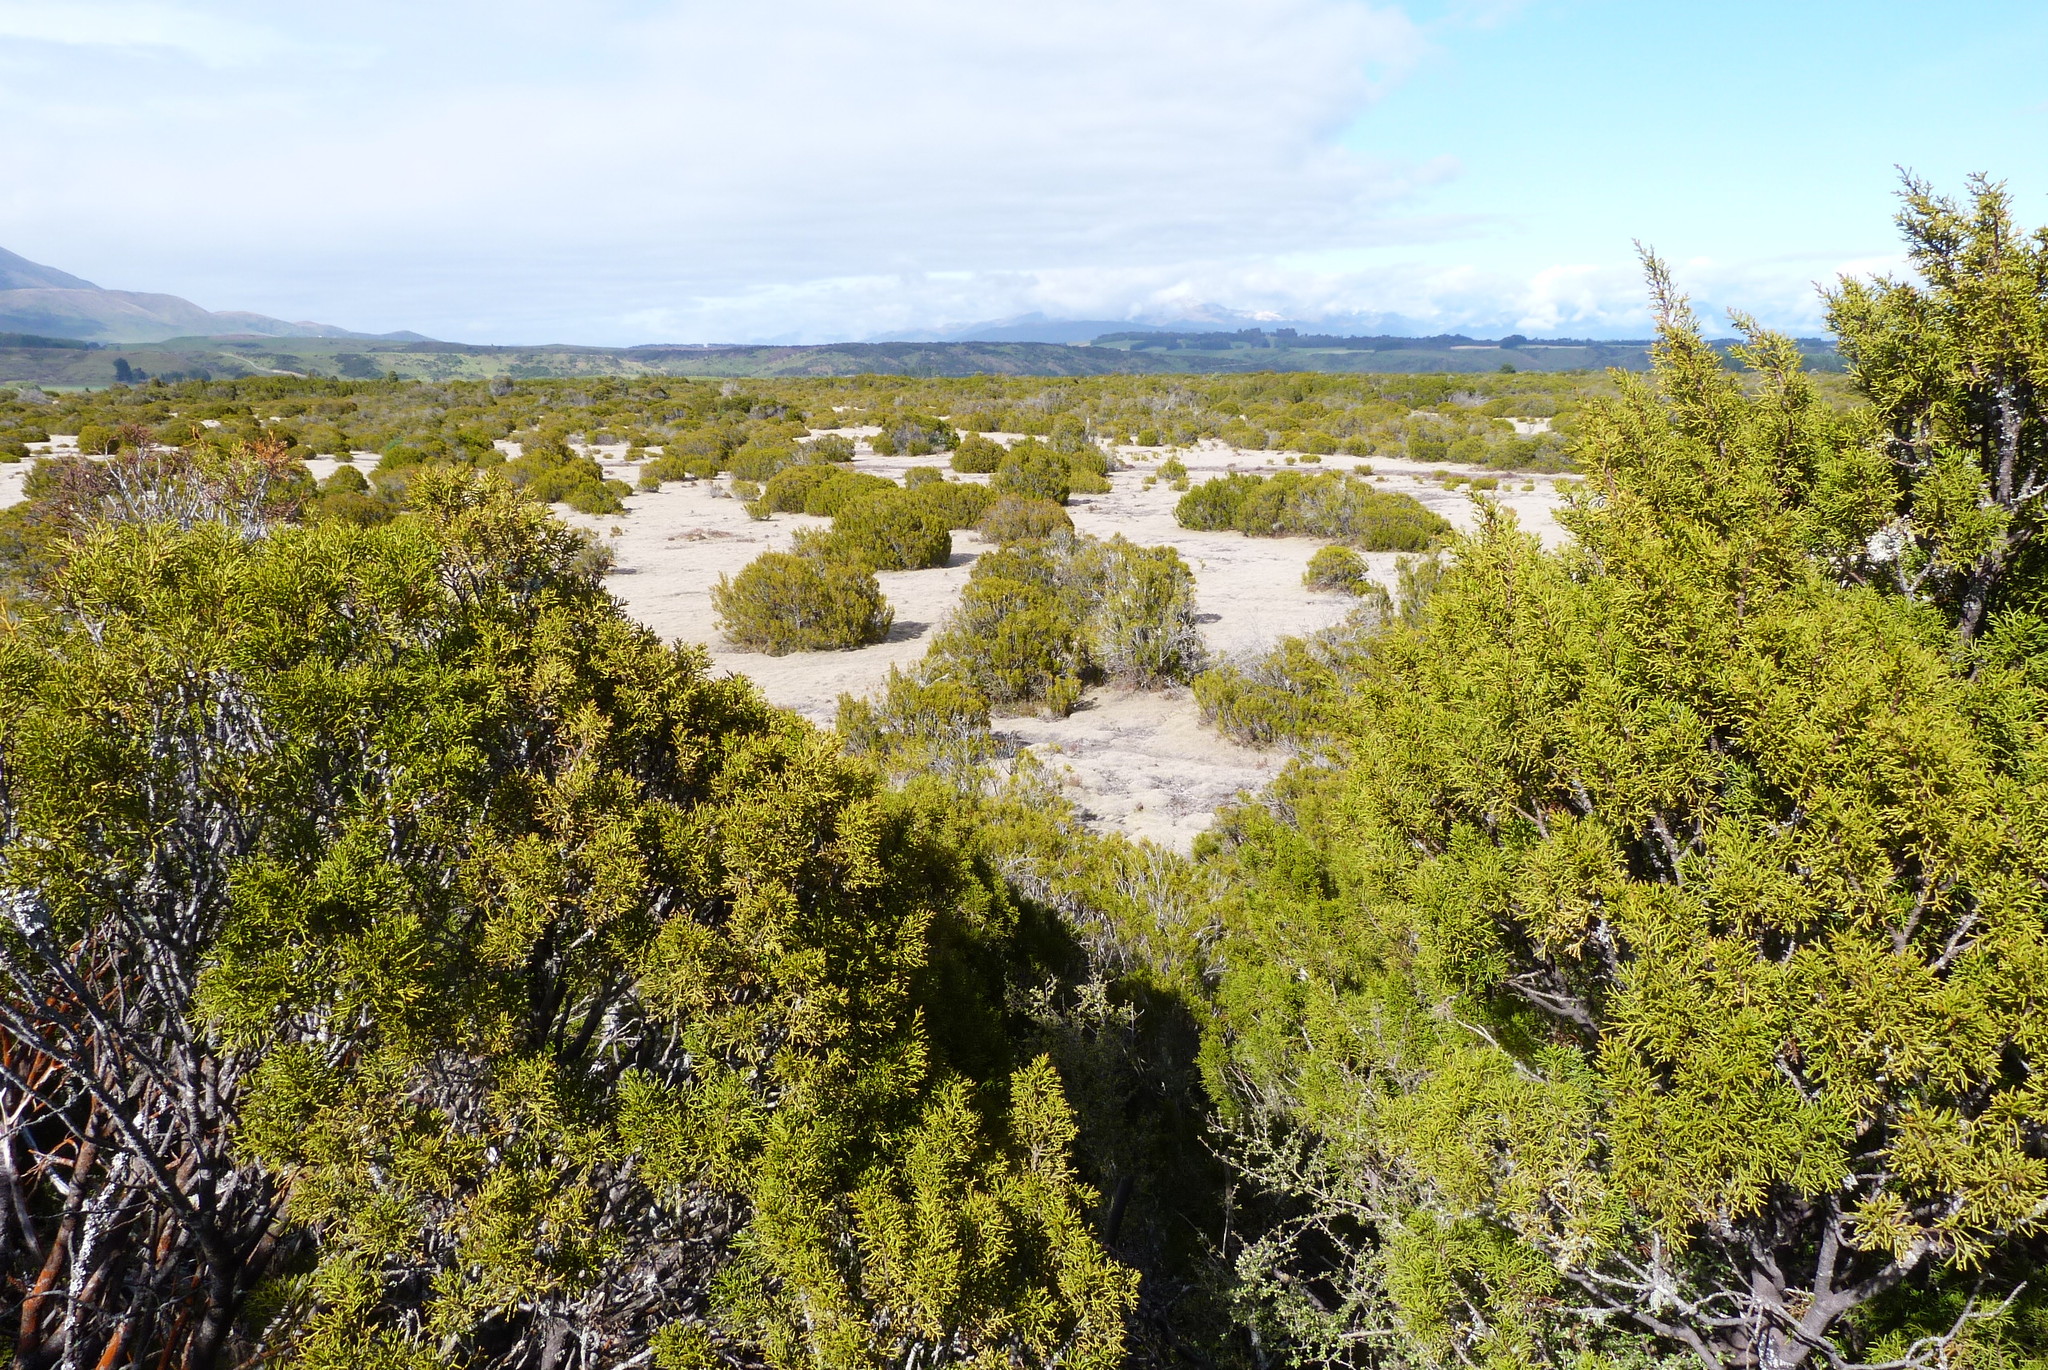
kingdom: Plantae
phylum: Tracheophyta
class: Pinopsida
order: Pinales
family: Podocarpaceae
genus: Halocarpus
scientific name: Halocarpus bidwillii
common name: Bog pine
